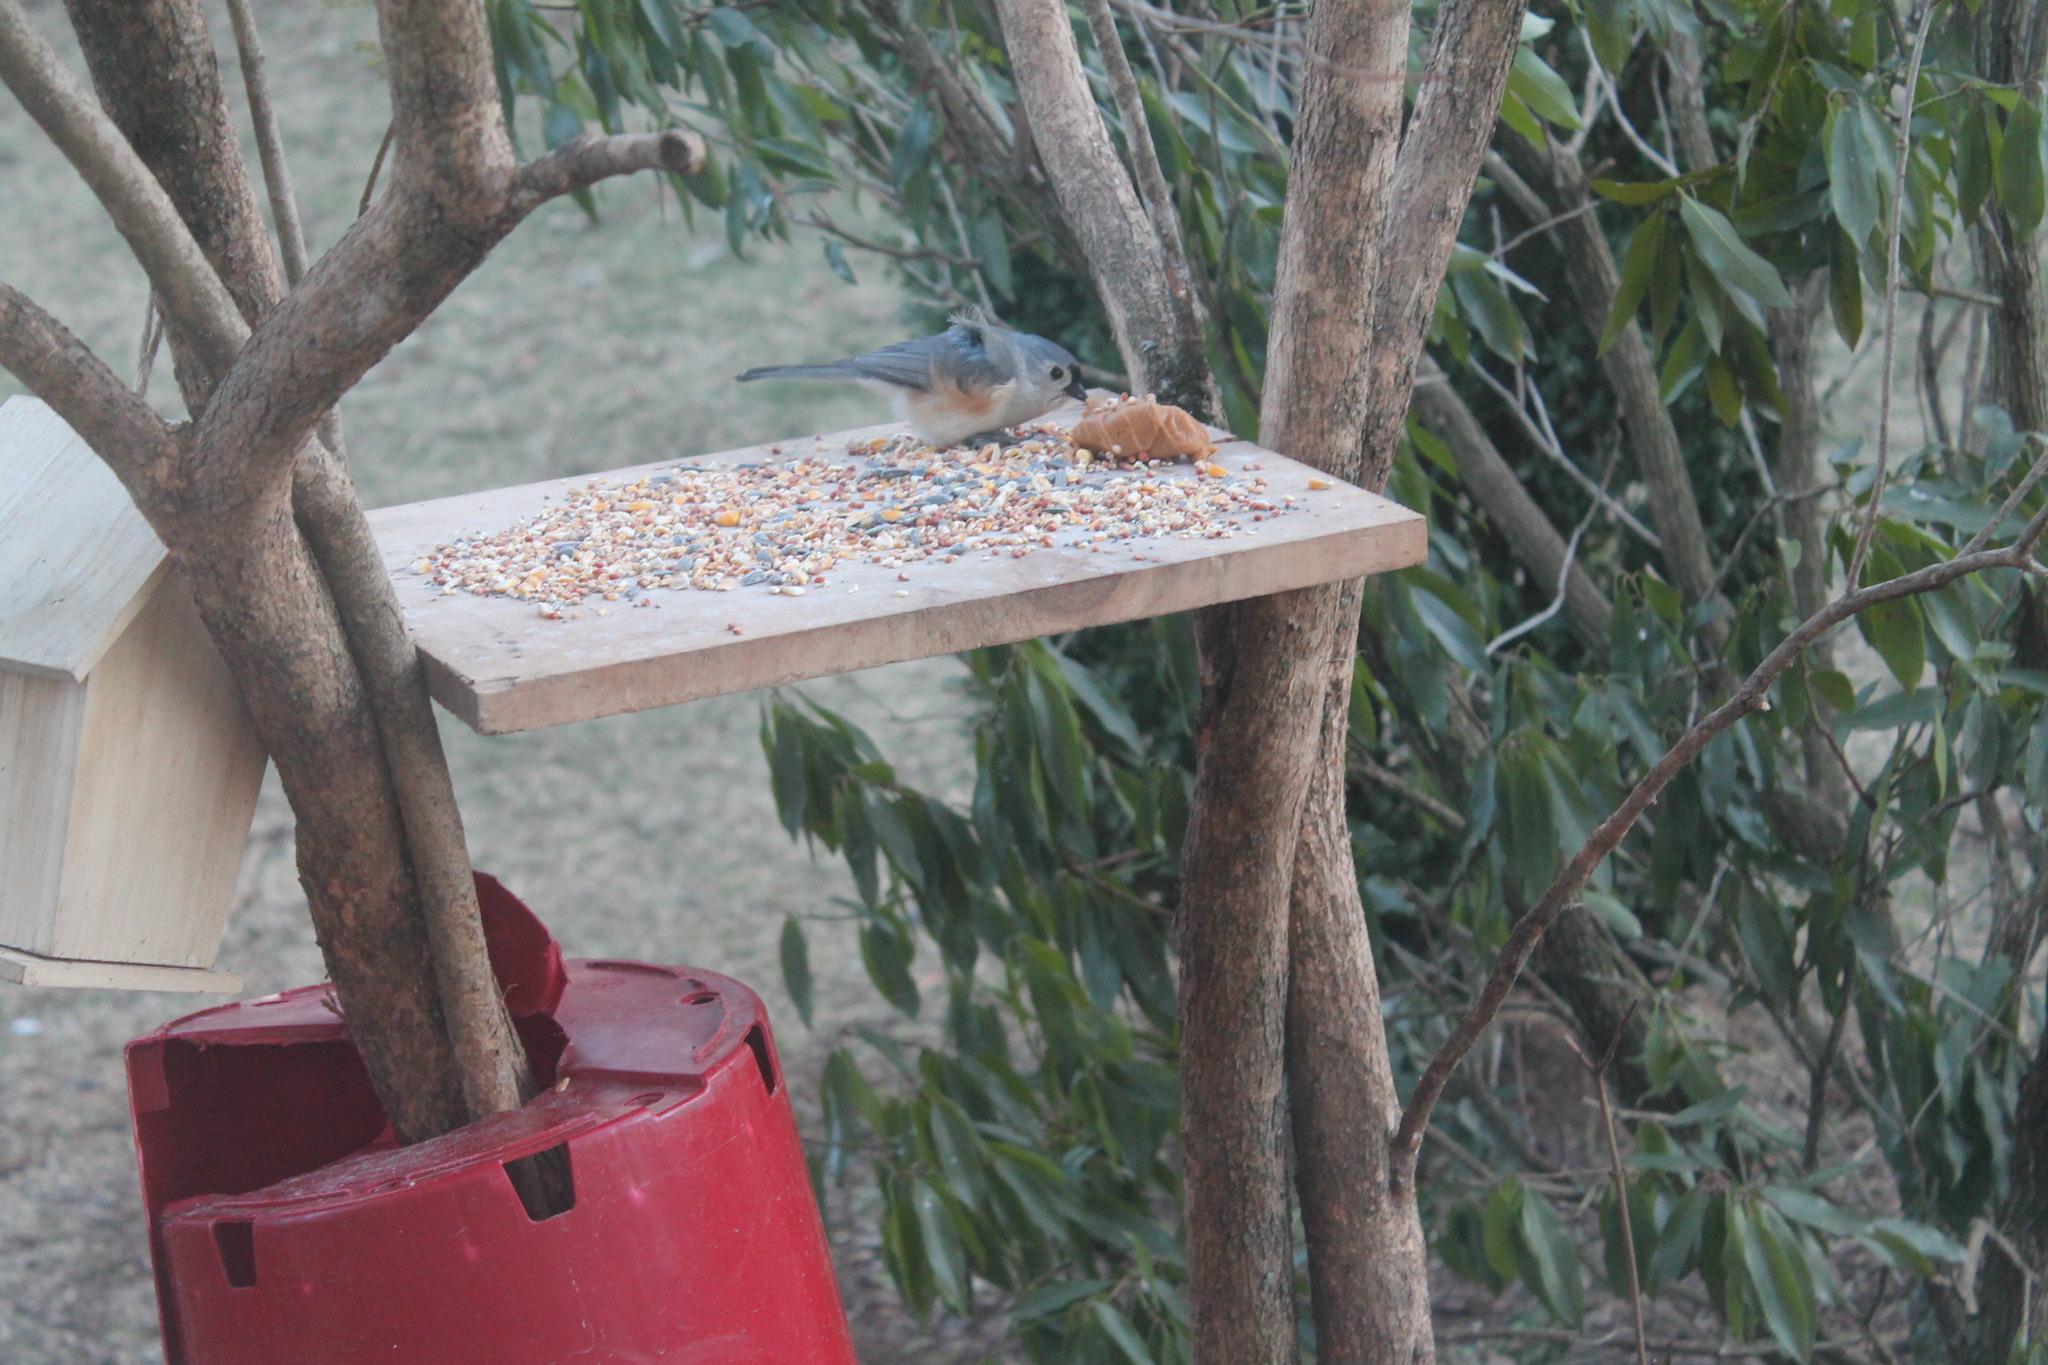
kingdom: Animalia
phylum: Chordata
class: Aves
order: Passeriformes
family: Paridae
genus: Baeolophus
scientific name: Baeolophus bicolor
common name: Tufted titmouse
